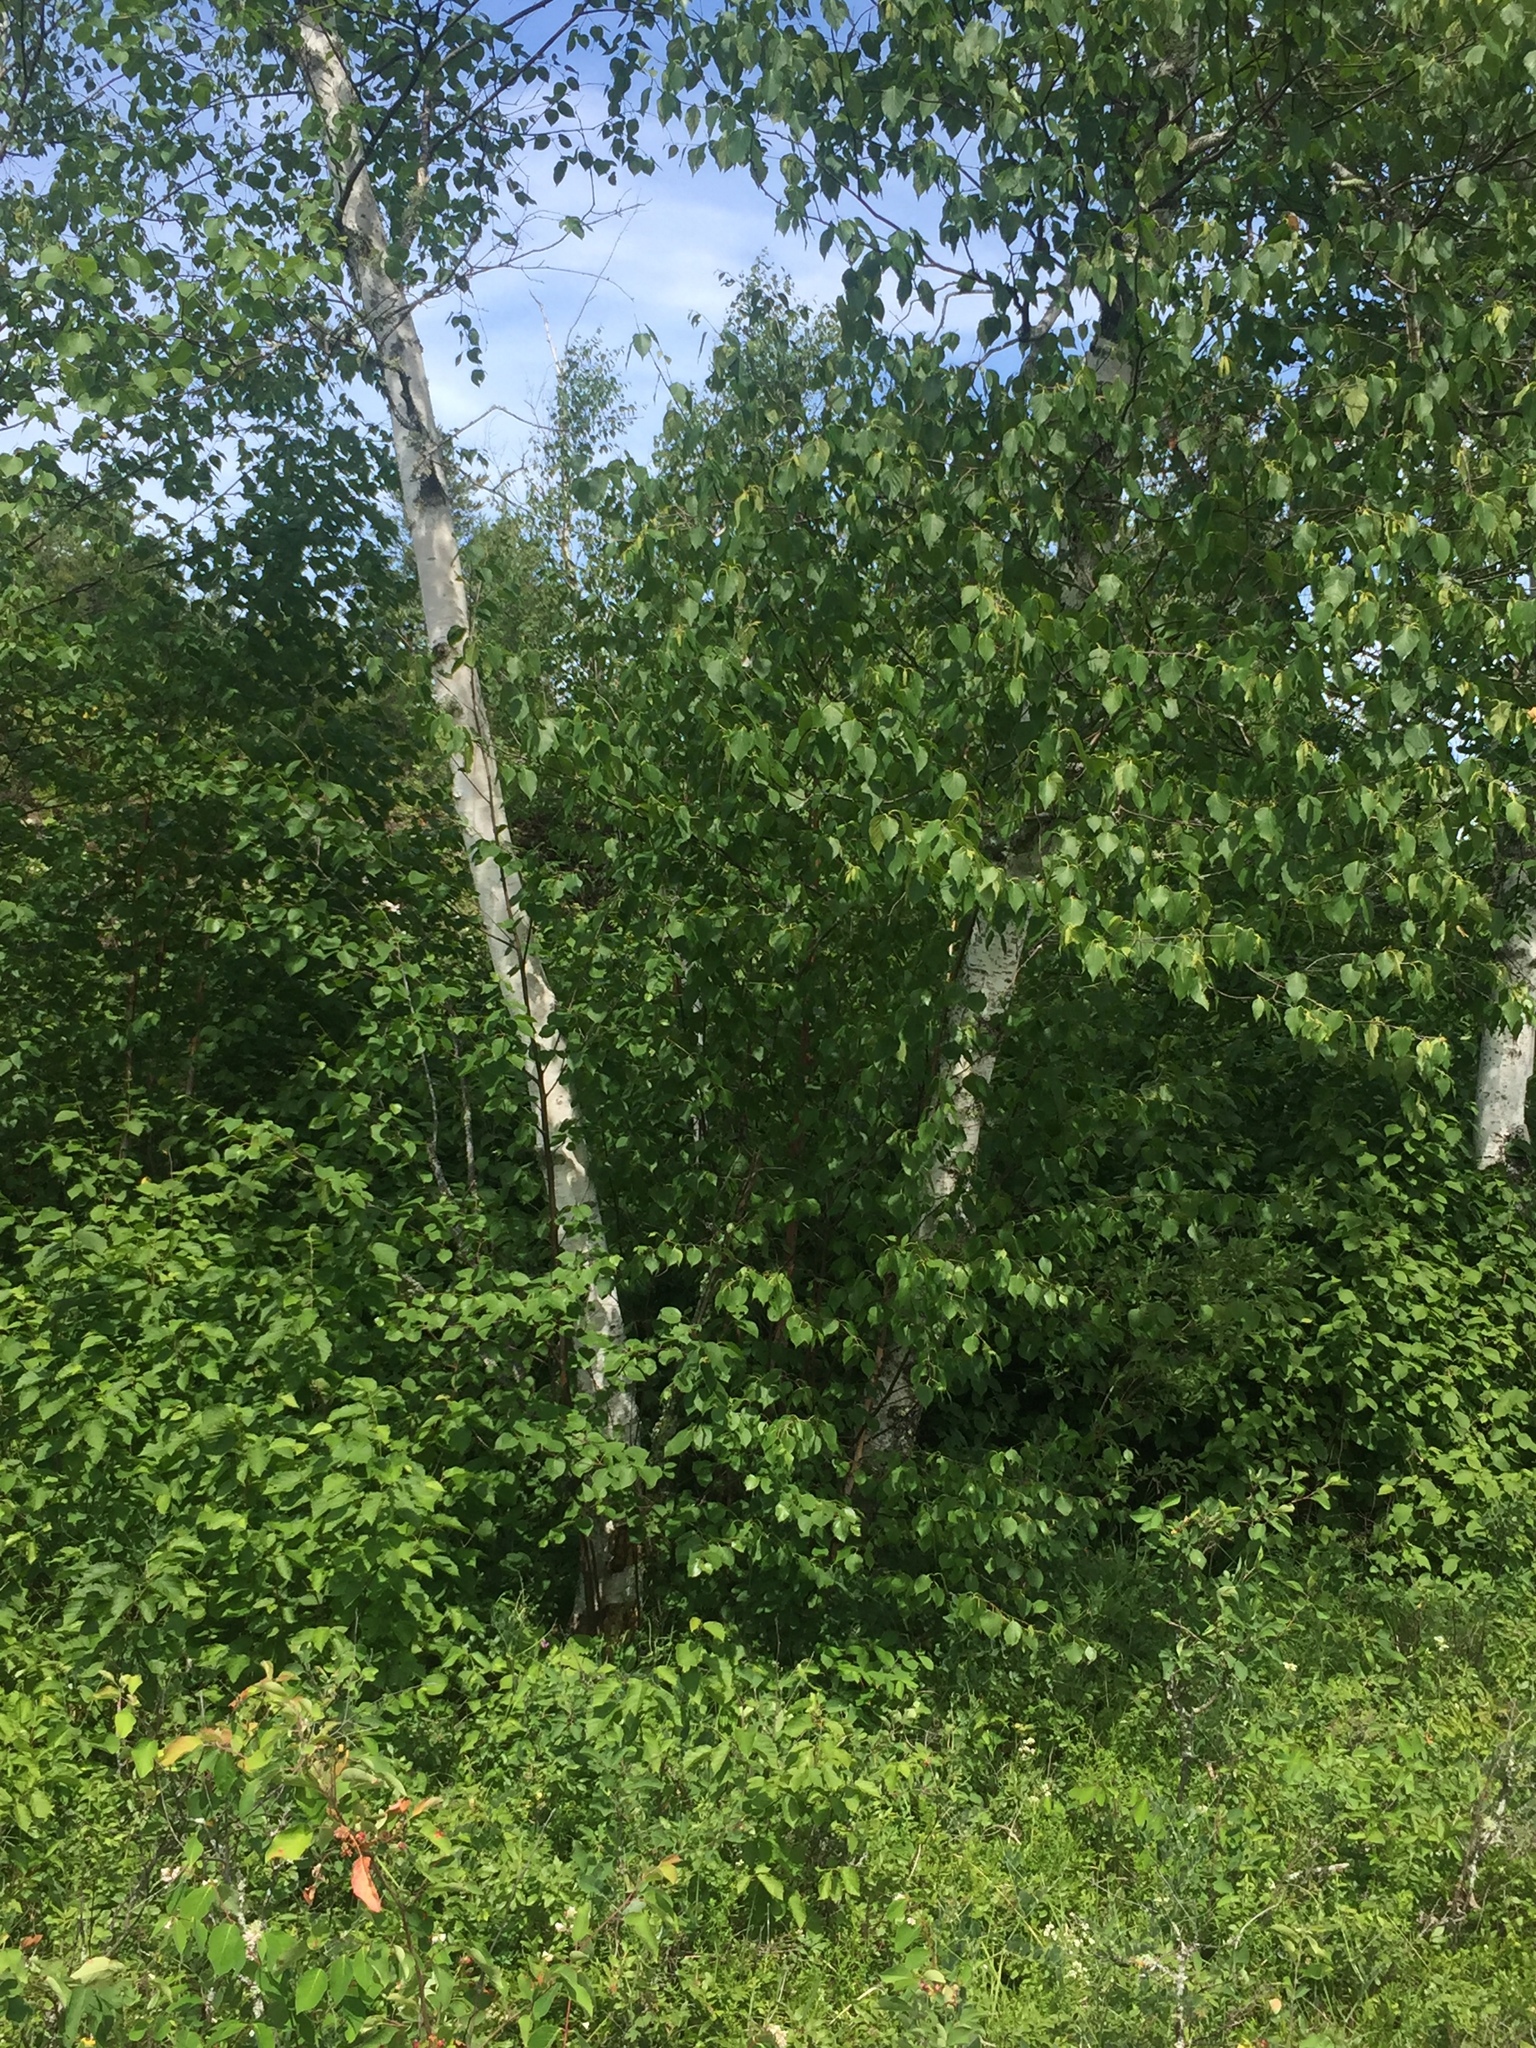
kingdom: Plantae
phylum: Tracheophyta
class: Magnoliopsida
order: Fagales
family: Betulaceae
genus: Betula
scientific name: Betula papyrifera
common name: Paper birch
